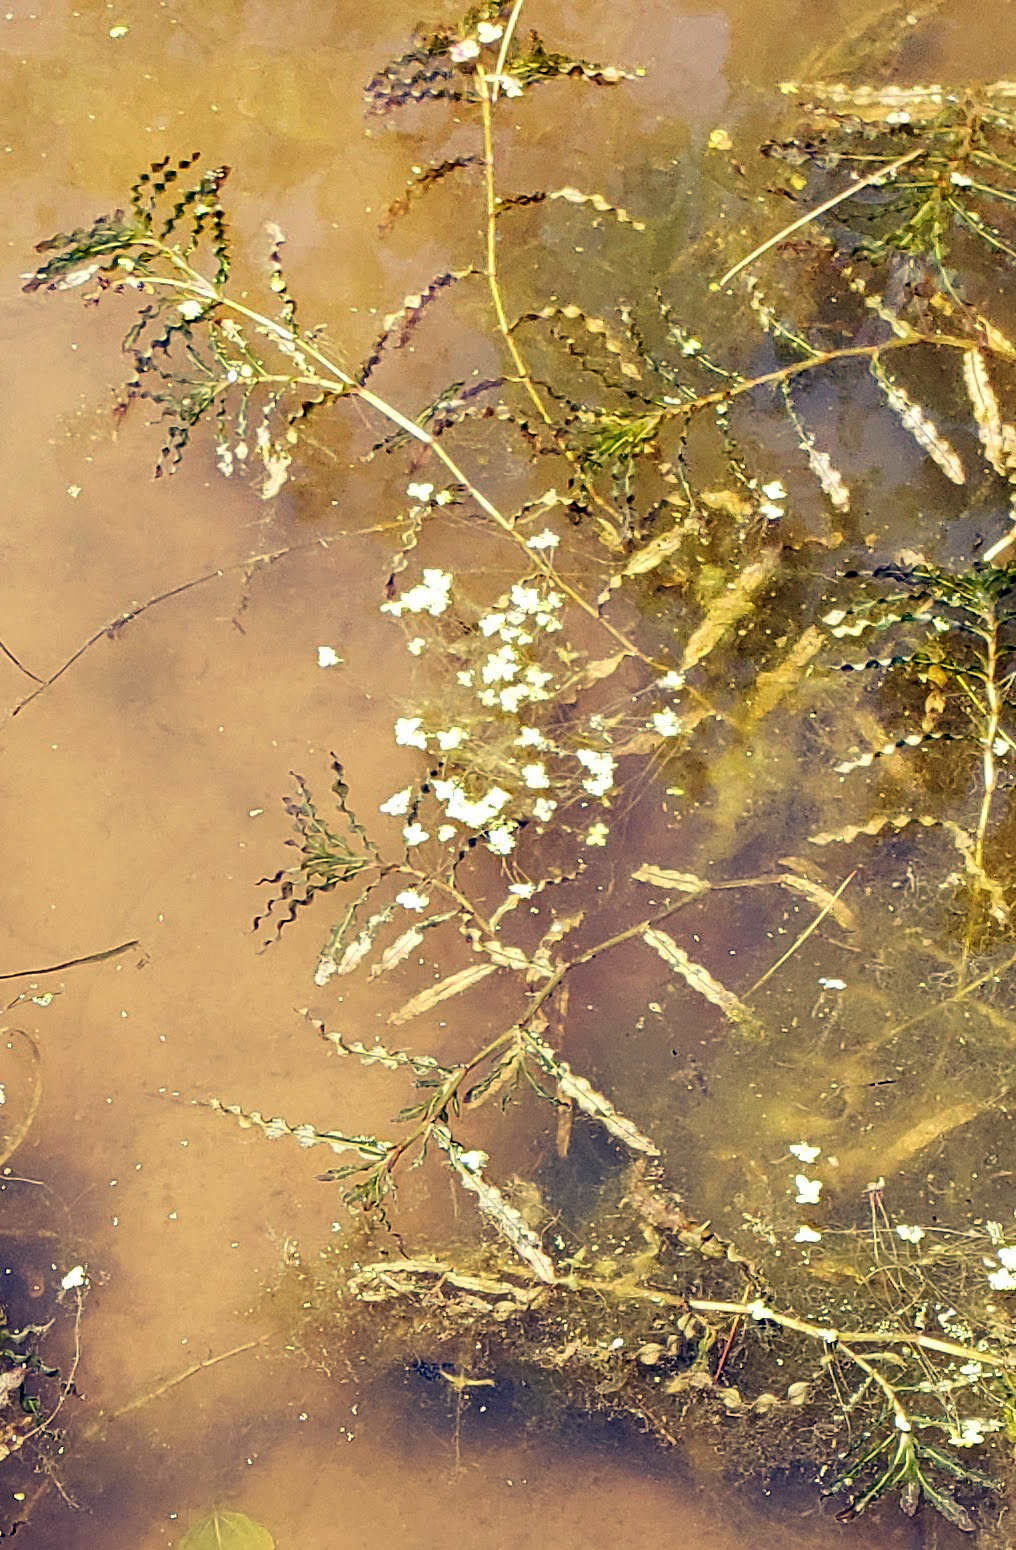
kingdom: Plantae
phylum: Tracheophyta
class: Liliopsida
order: Alismatales
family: Potamogetonaceae
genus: Potamogeton
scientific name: Potamogeton crispus
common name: Curled pondweed
